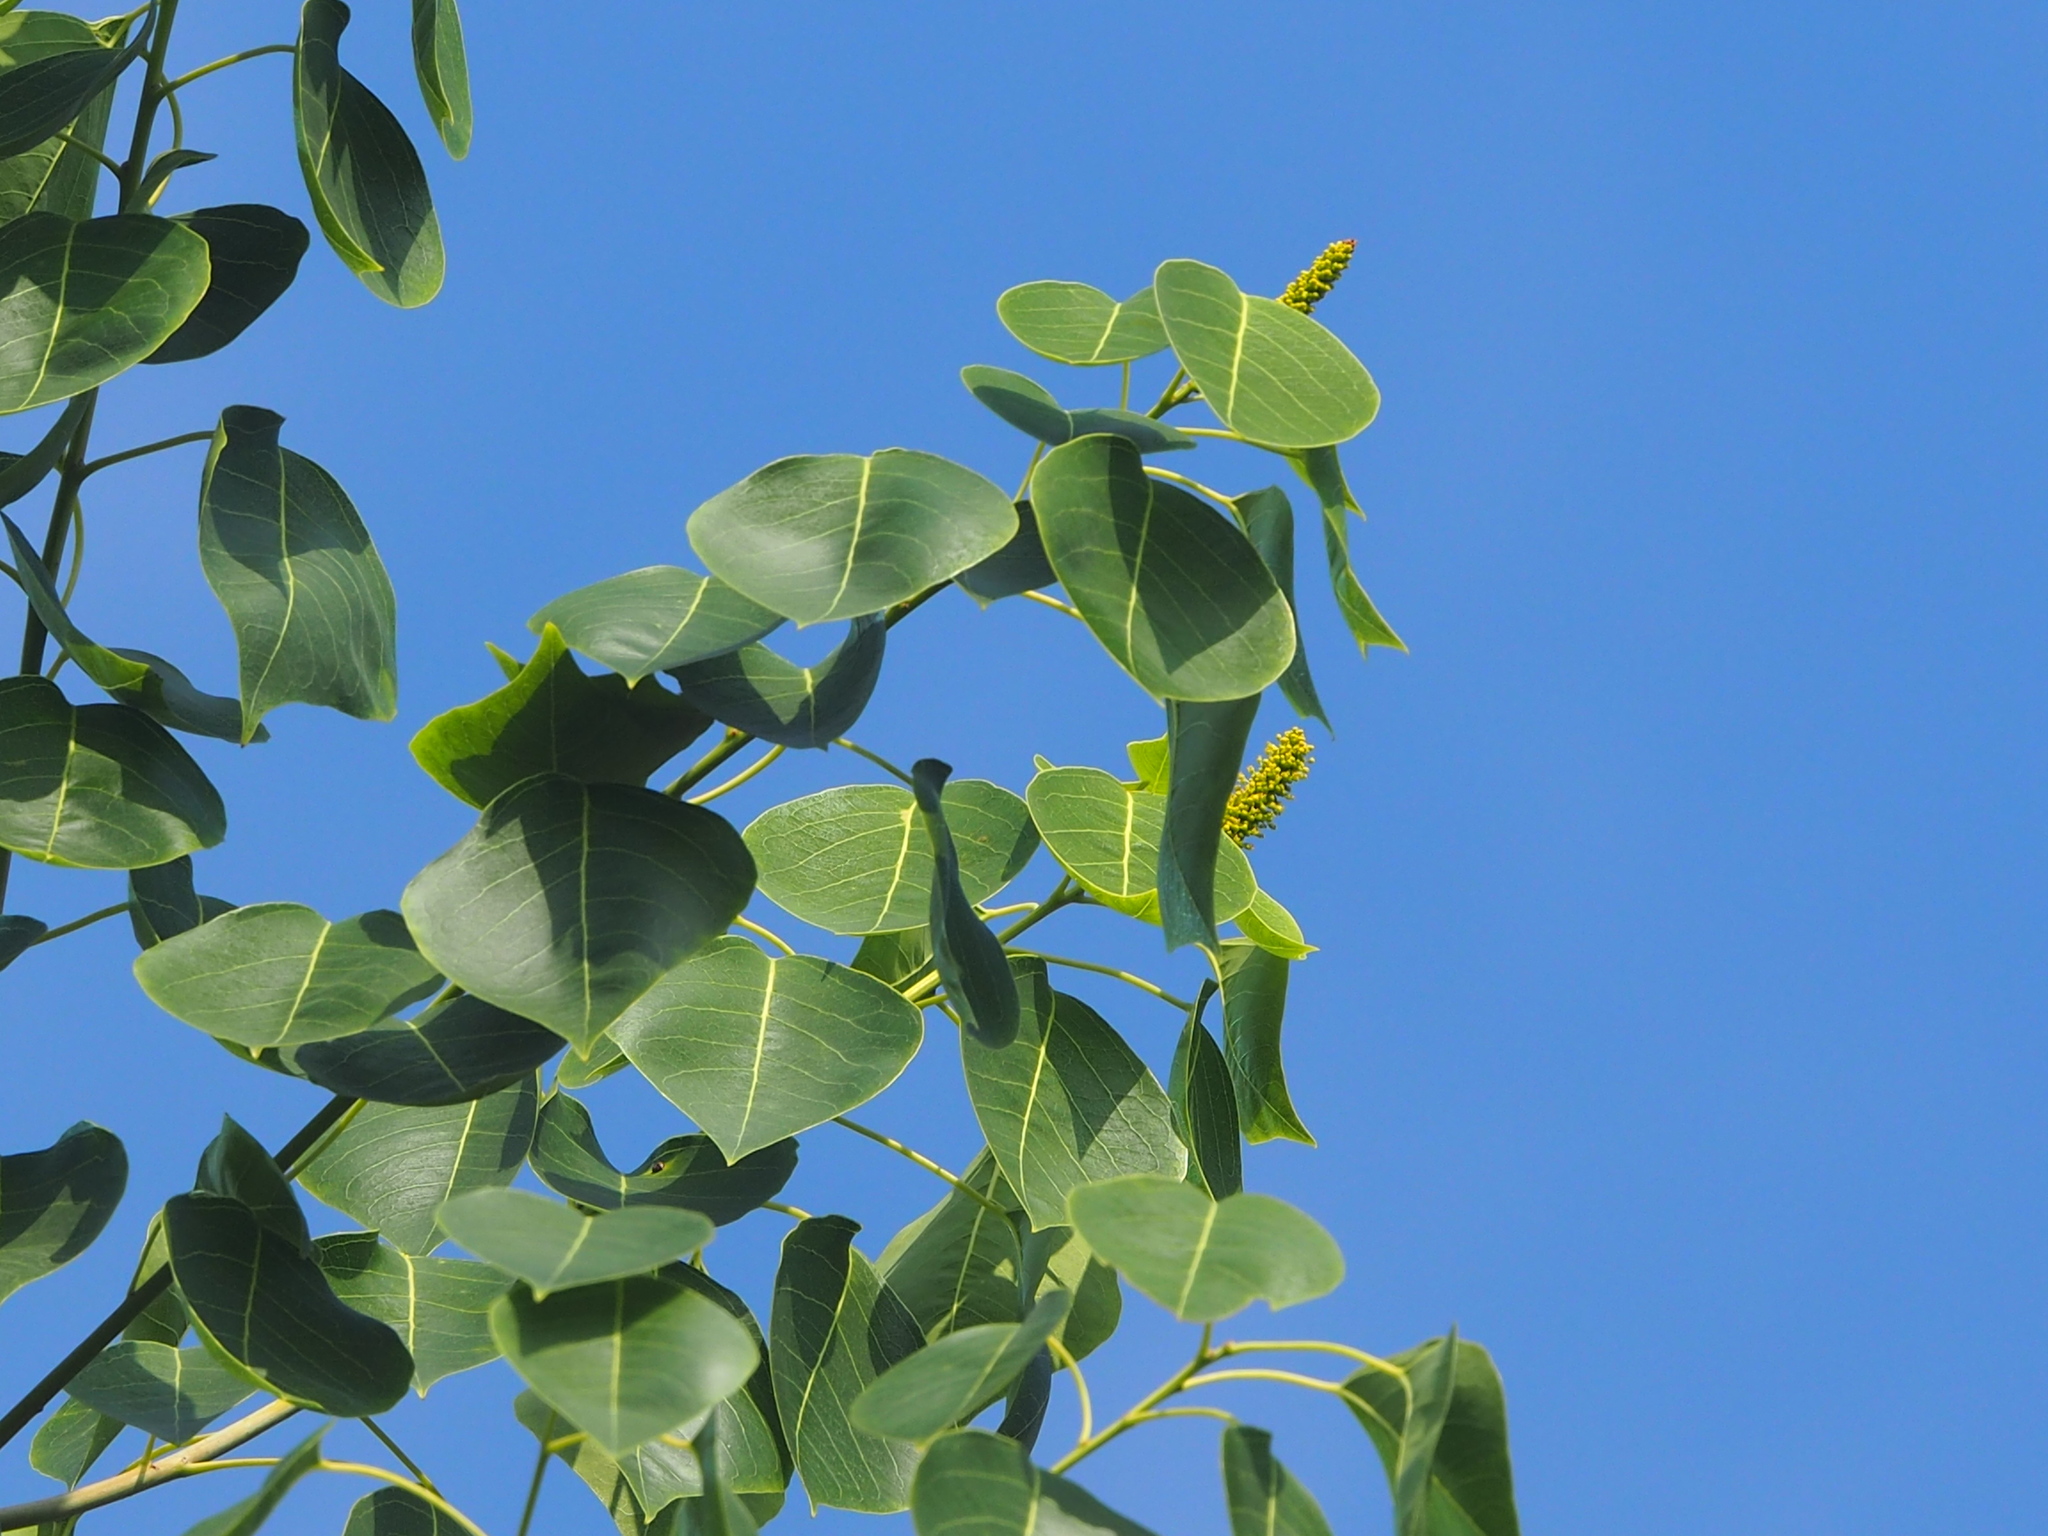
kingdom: Plantae
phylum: Tracheophyta
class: Magnoliopsida
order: Malpighiales
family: Euphorbiaceae
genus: Triadica
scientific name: Triadica sebifera
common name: Chinese tallow
